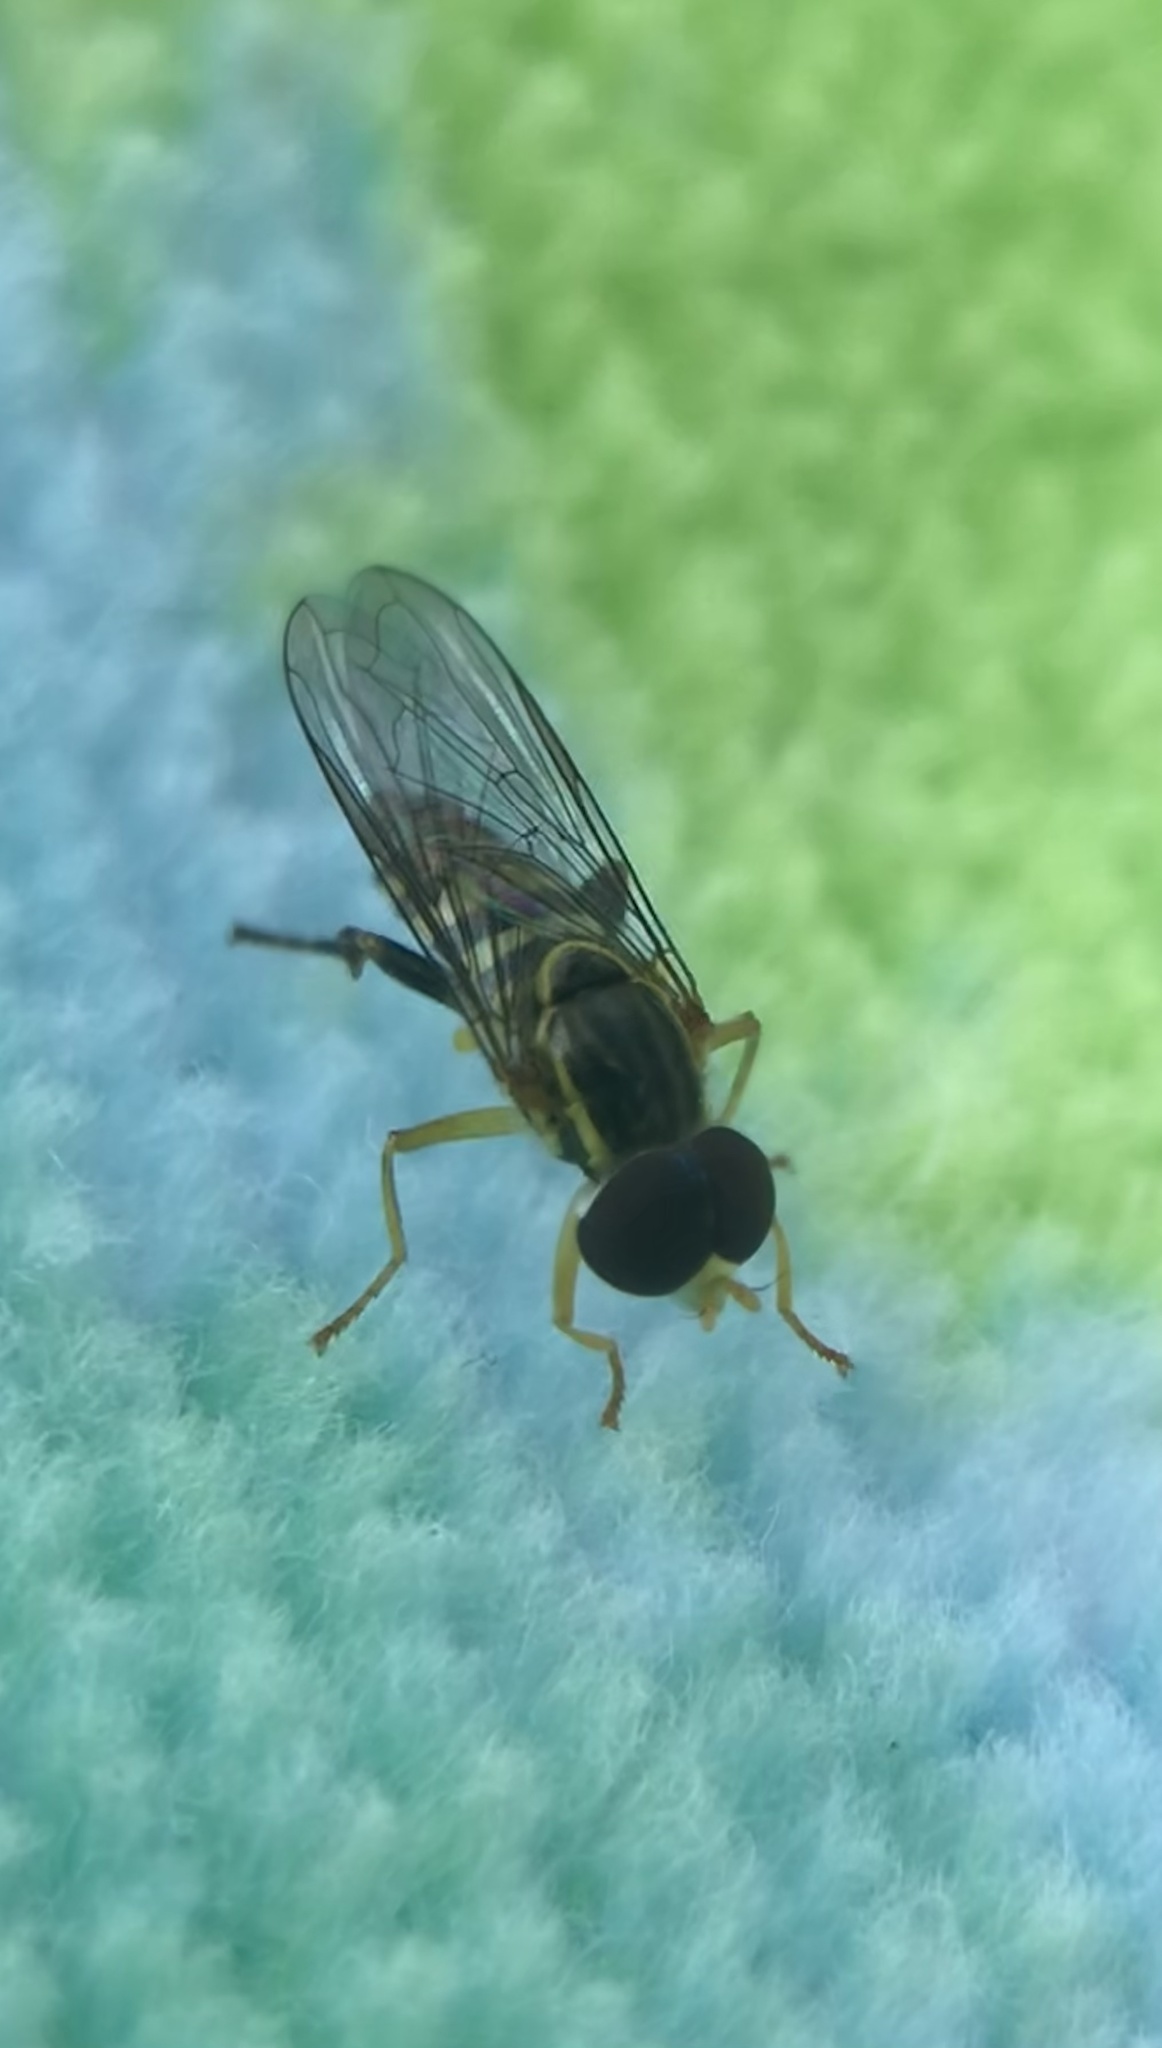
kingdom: Animalia
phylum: Arthropoda
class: Insecta
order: Diptera
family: Syrphidae
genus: Toxomerus
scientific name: Toxomerus geminatus
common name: Eastern calligrapher
